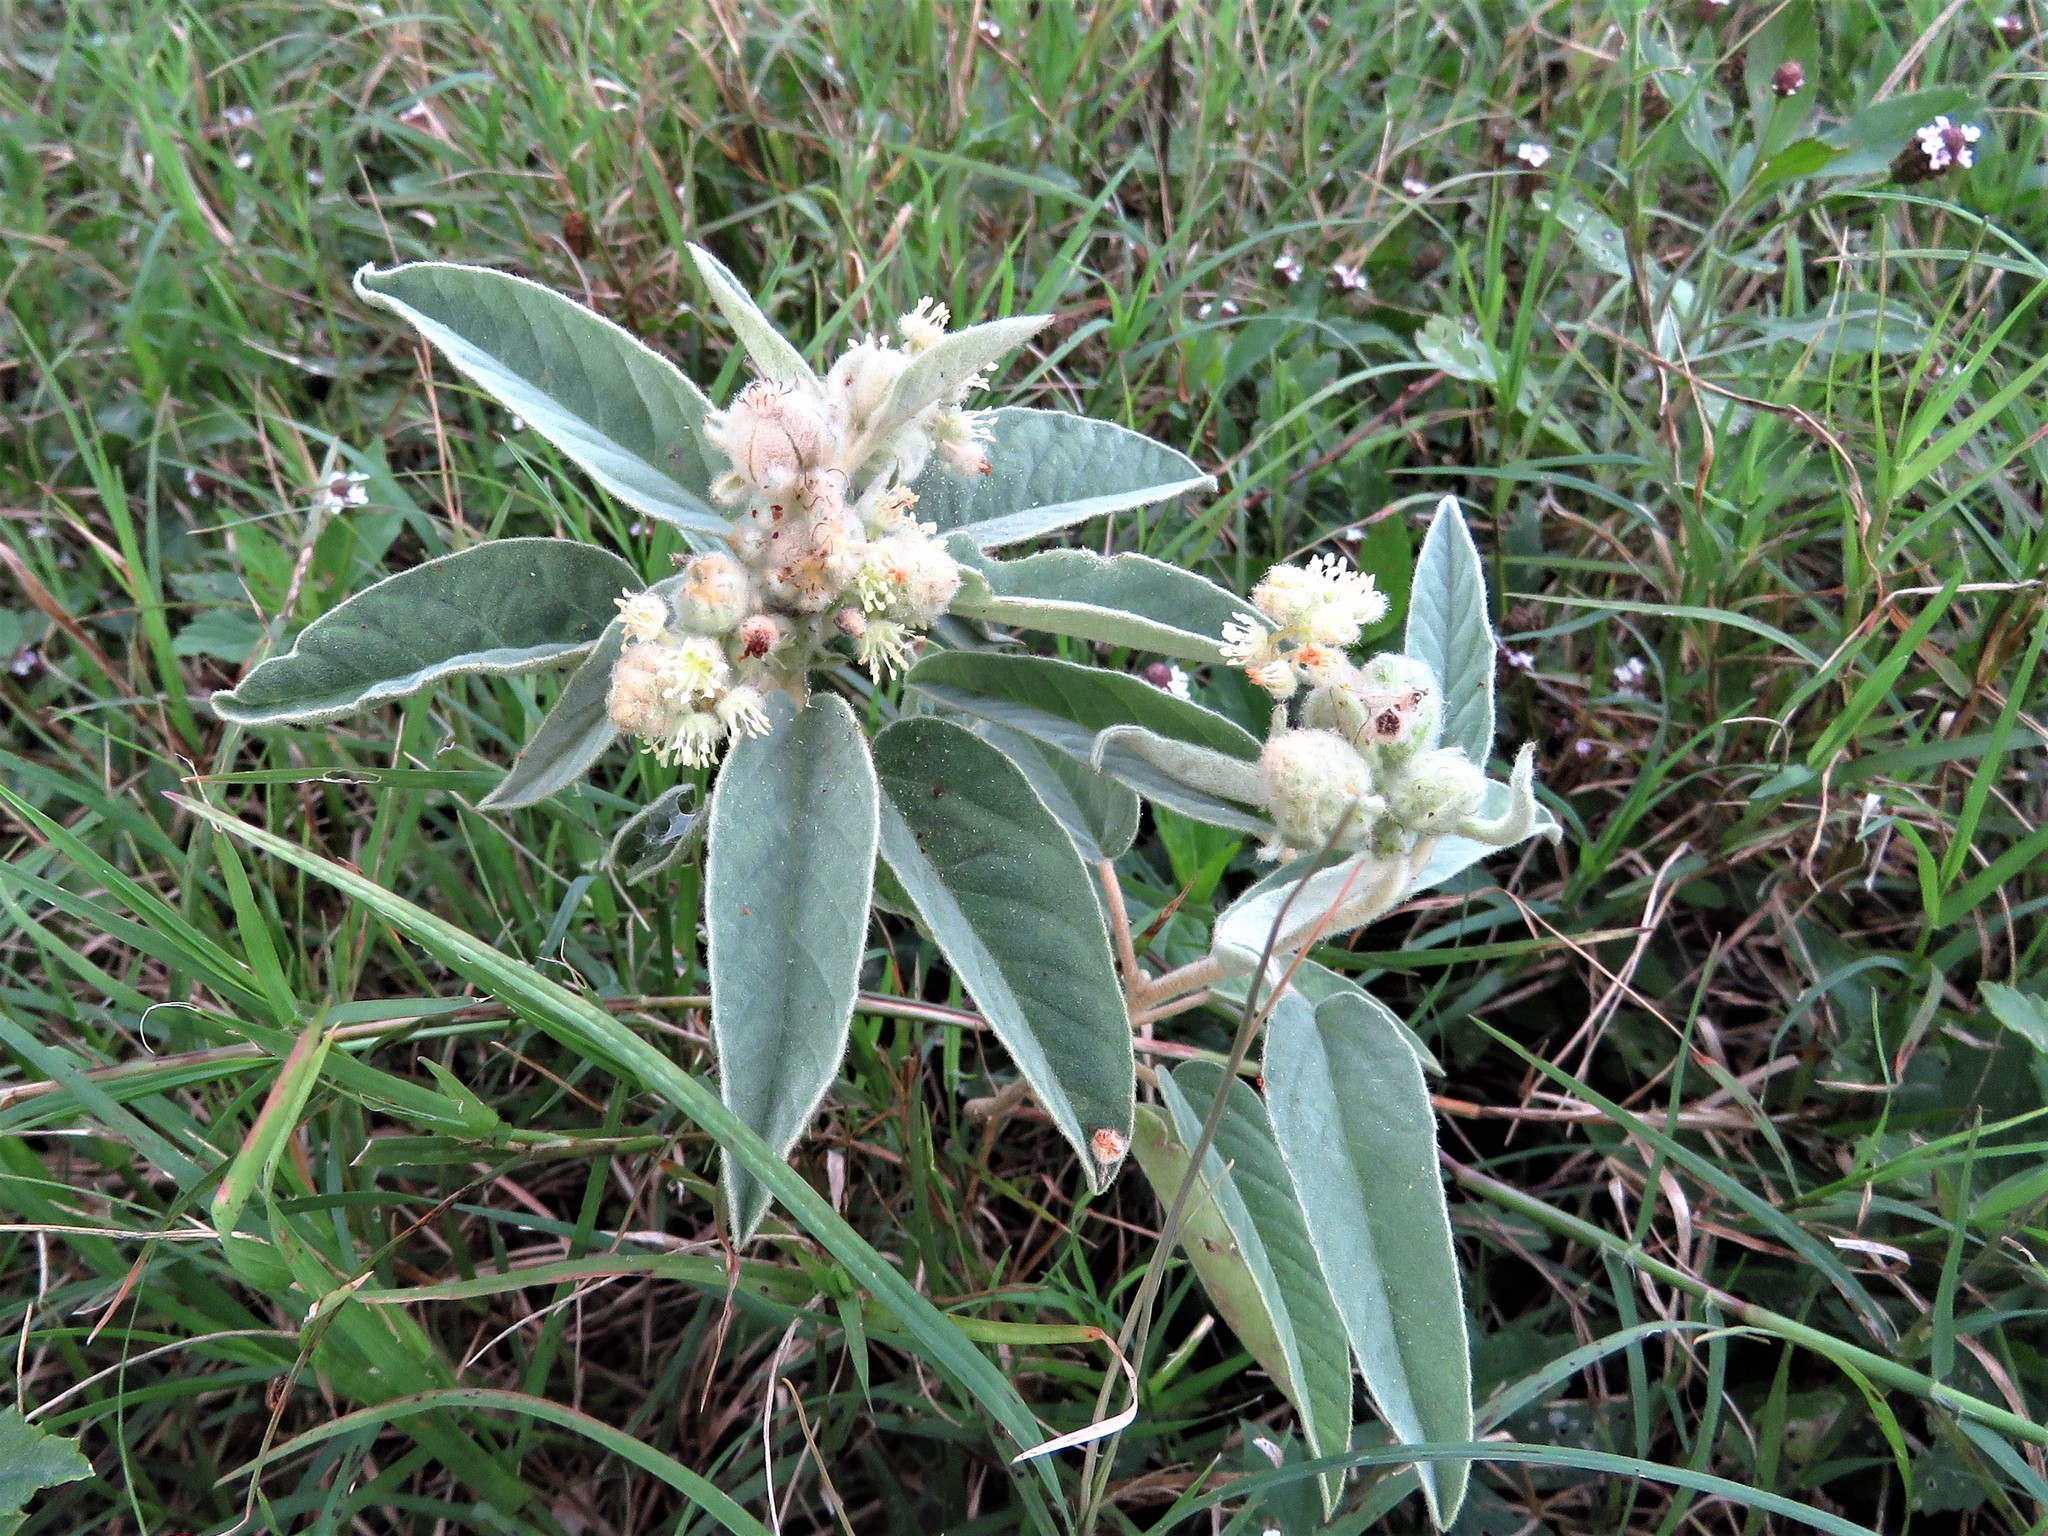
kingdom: Plantae
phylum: Tracheophyta
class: Magnoliopsida
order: Malpighiales
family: Euphorbiaceae
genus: Croton
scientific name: Croton lindheimeri
